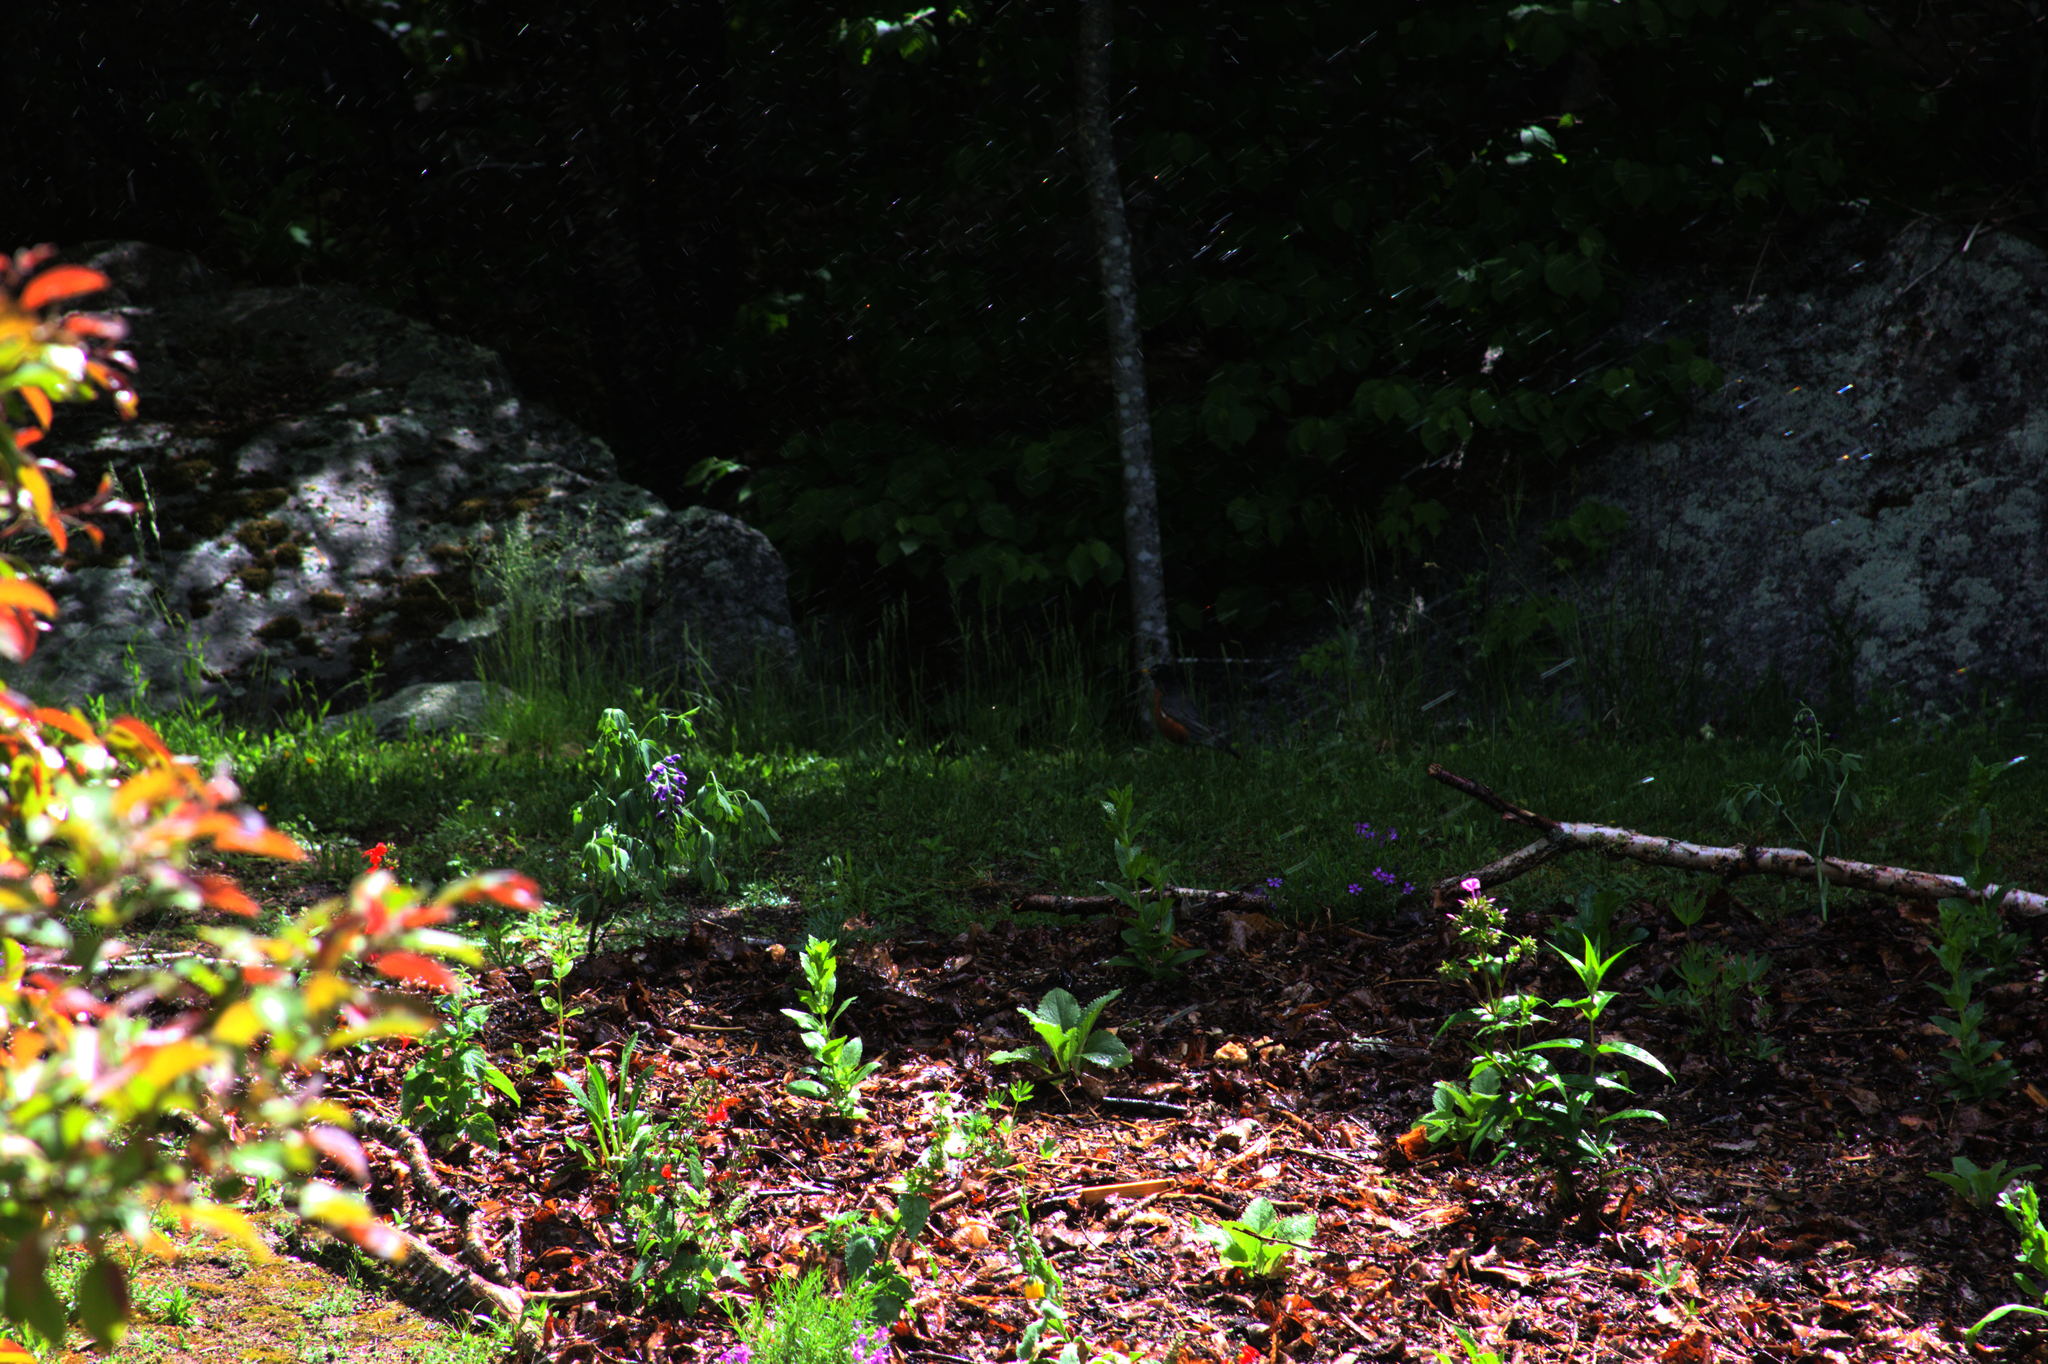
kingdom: Animalia
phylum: Chordata
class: Aves
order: Passeriformes
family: Turdidae
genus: Turdus
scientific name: Turdus migratorius
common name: American robin
